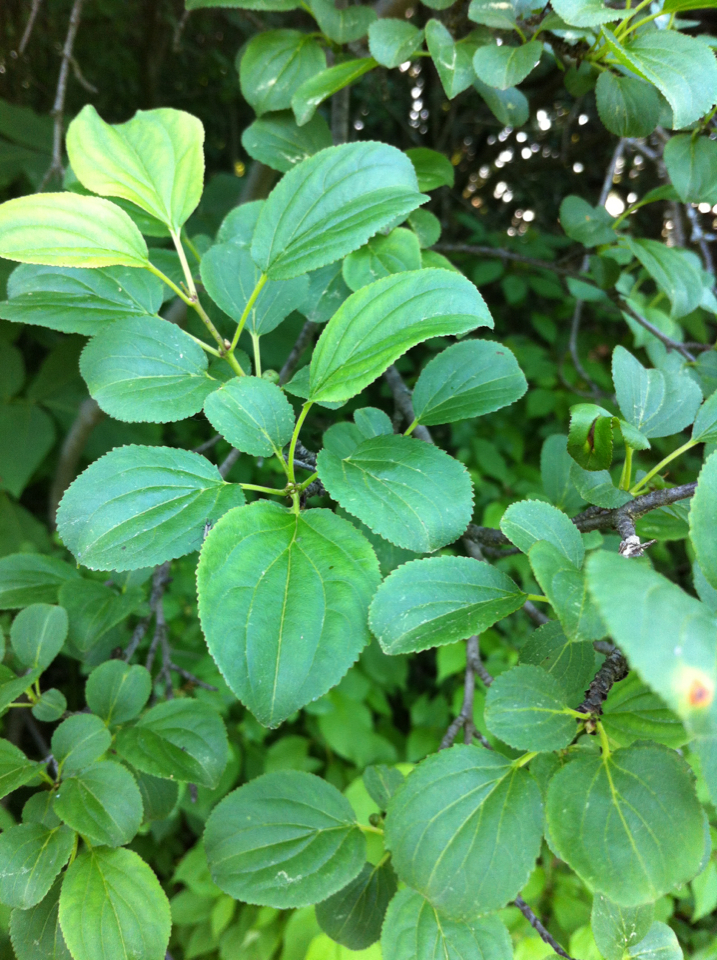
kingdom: Plantae
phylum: Tracheophyta
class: Magnoliopsida
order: Rosales
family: Rhamnaceae
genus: Rhamnus
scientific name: Rhamnus cathartica
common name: Common buckthorn
